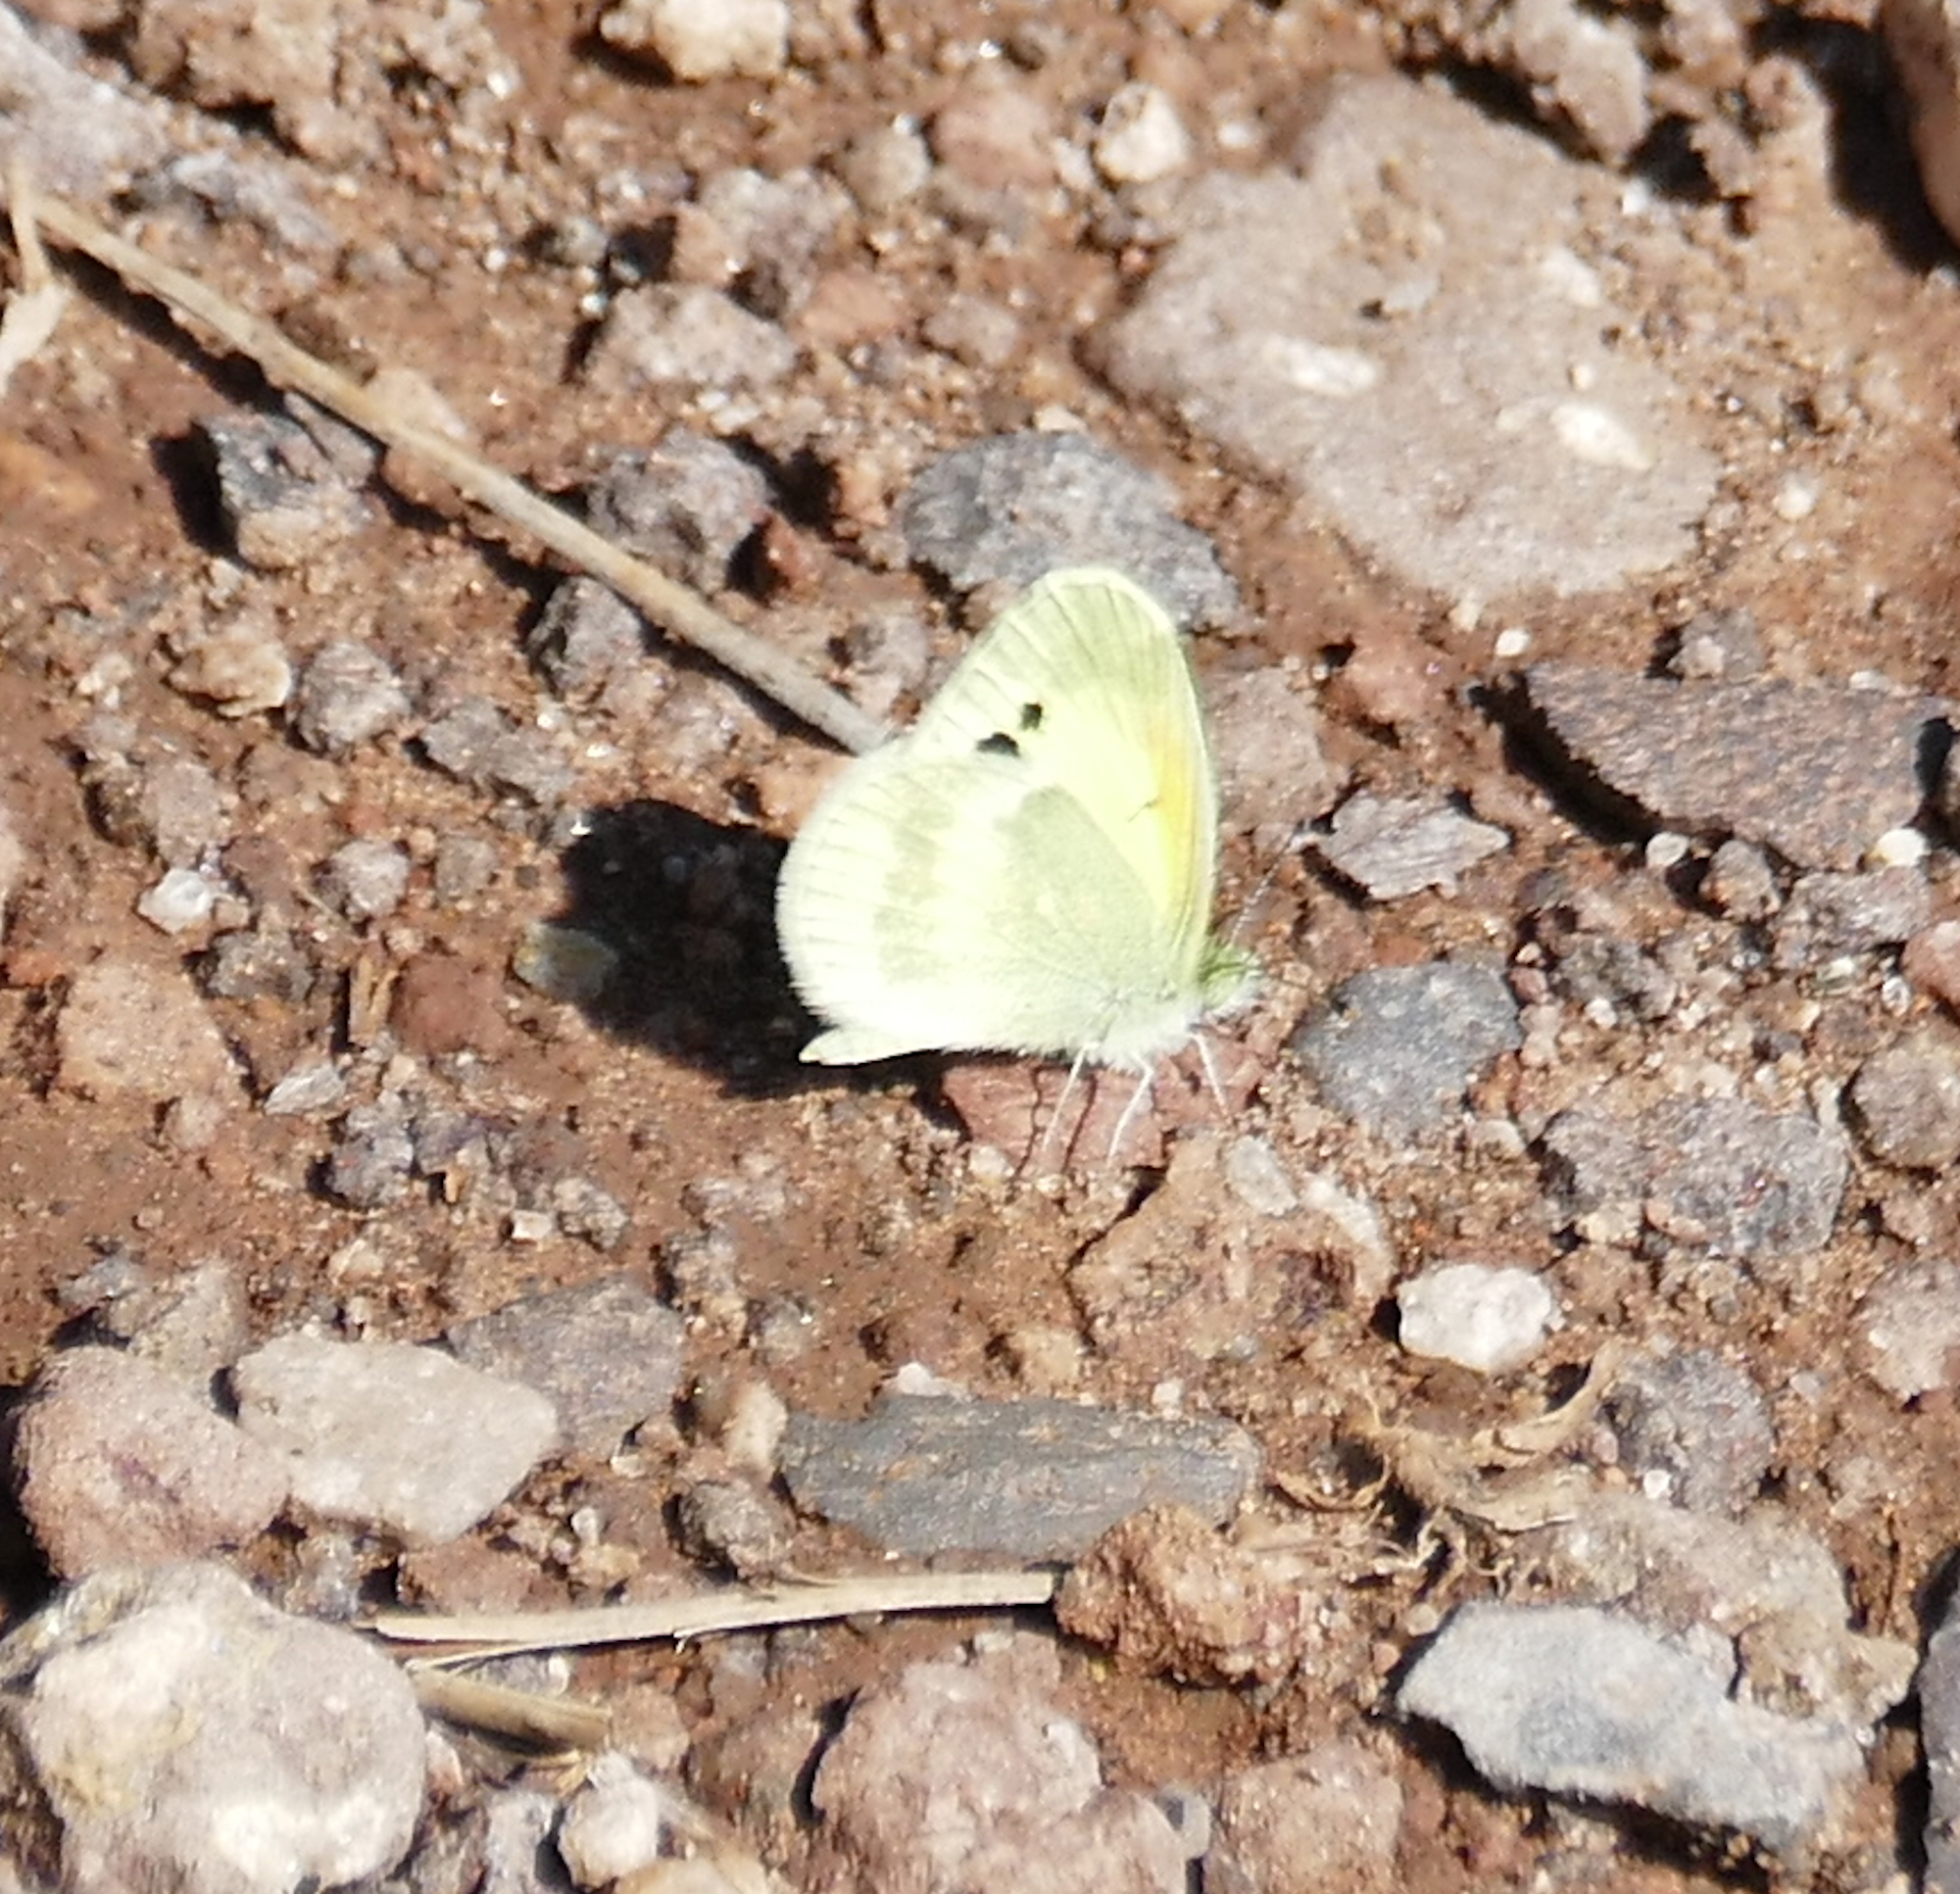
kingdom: Animalia
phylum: Arthropoda
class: Insecta
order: Lepidoptera
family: Pieridae
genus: Nathalis
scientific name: Nathalis iole
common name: Dainty sulphur
